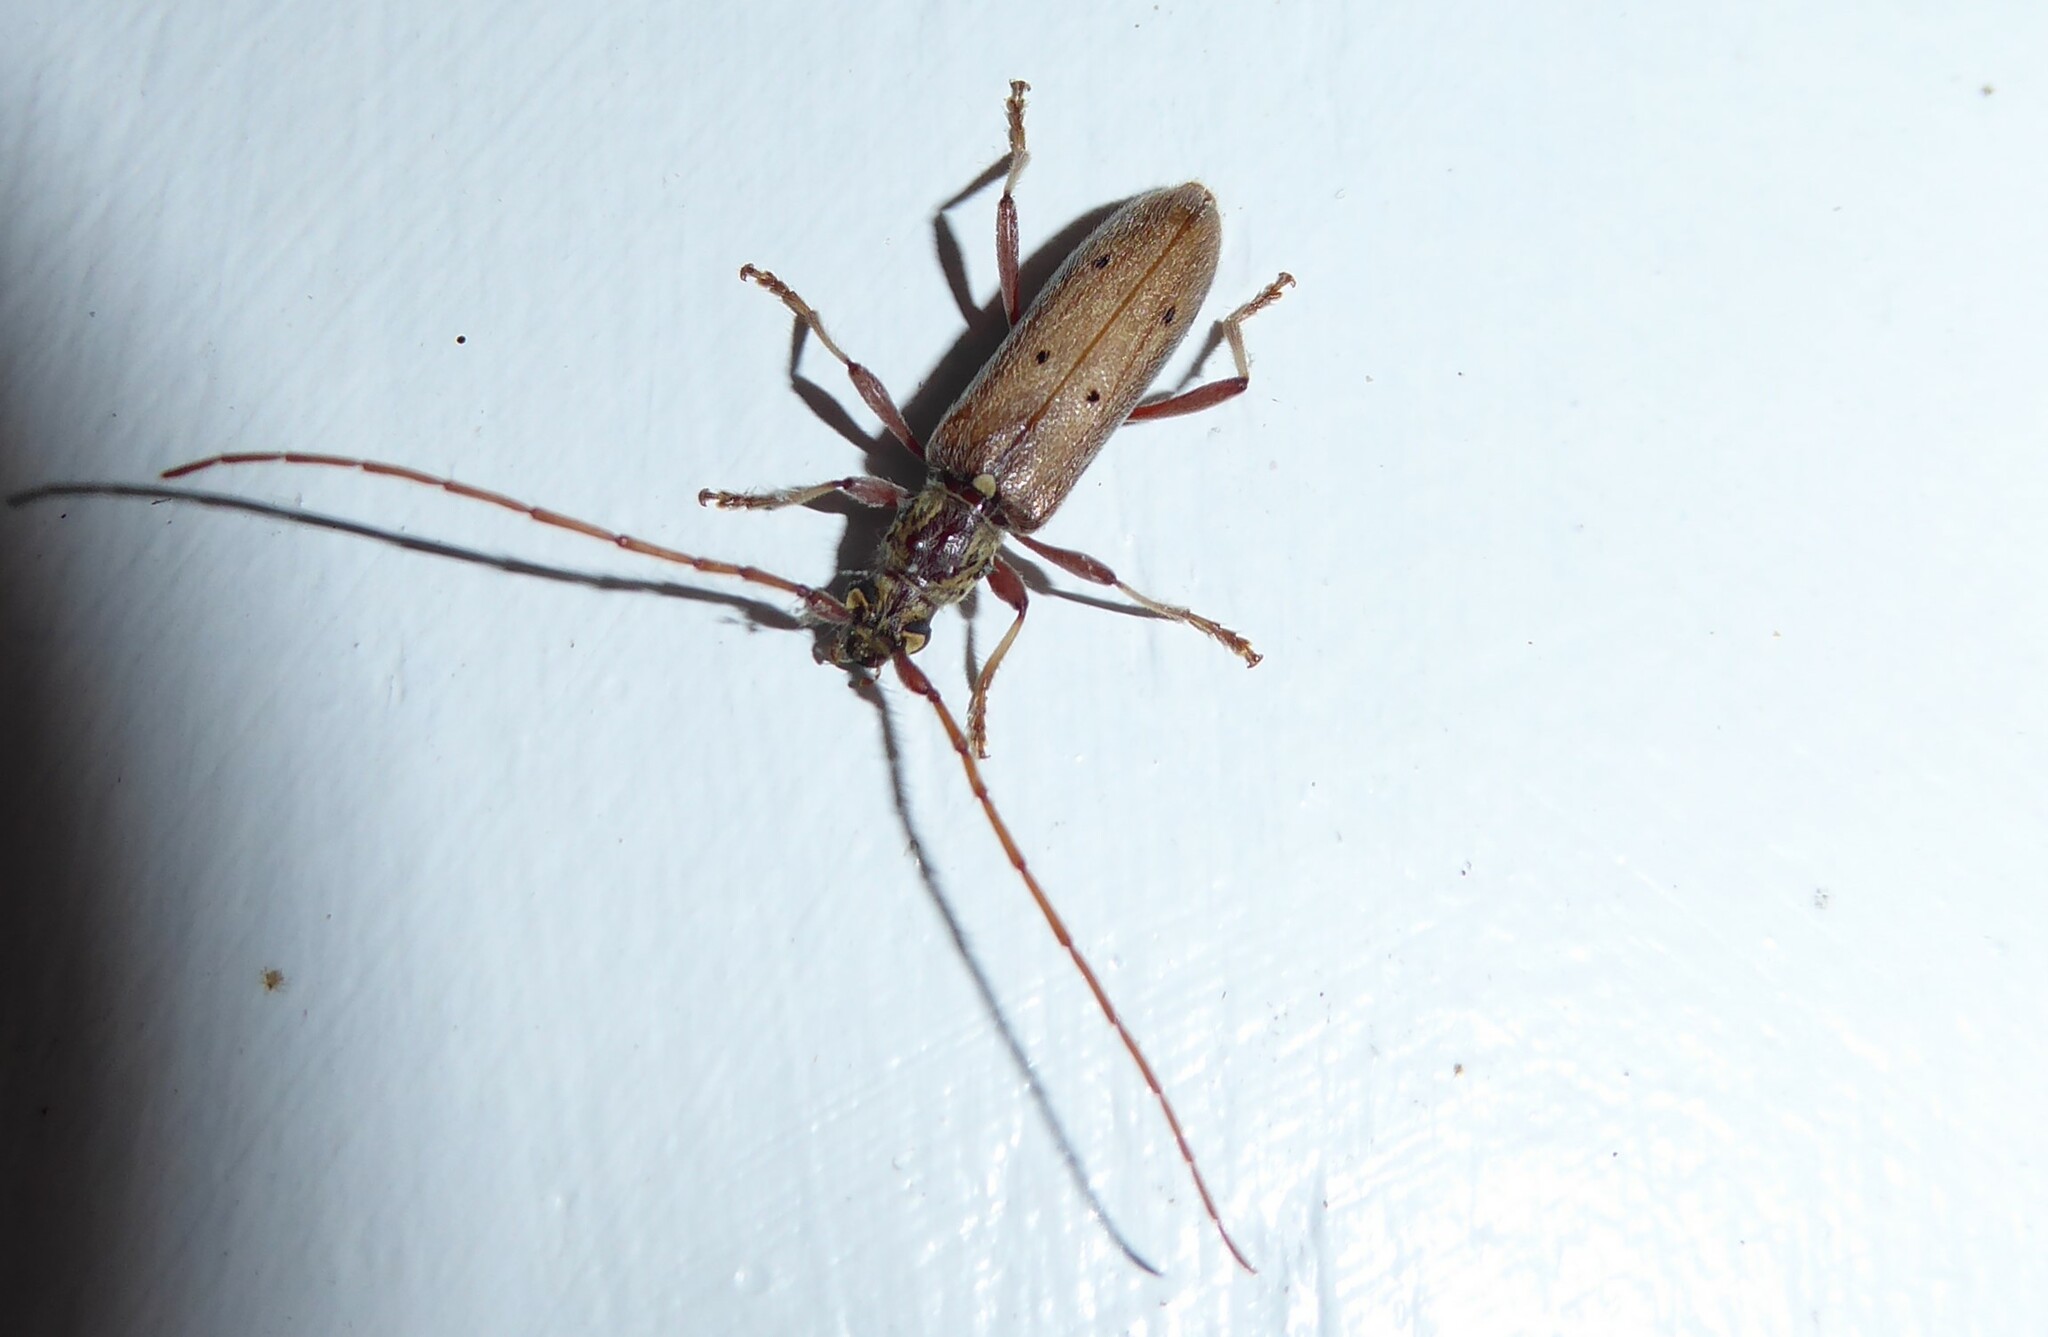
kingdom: Animalia
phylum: Arthropoda
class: Insecta
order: Coleoptera
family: Cerambycidae
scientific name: Cerambycidae
